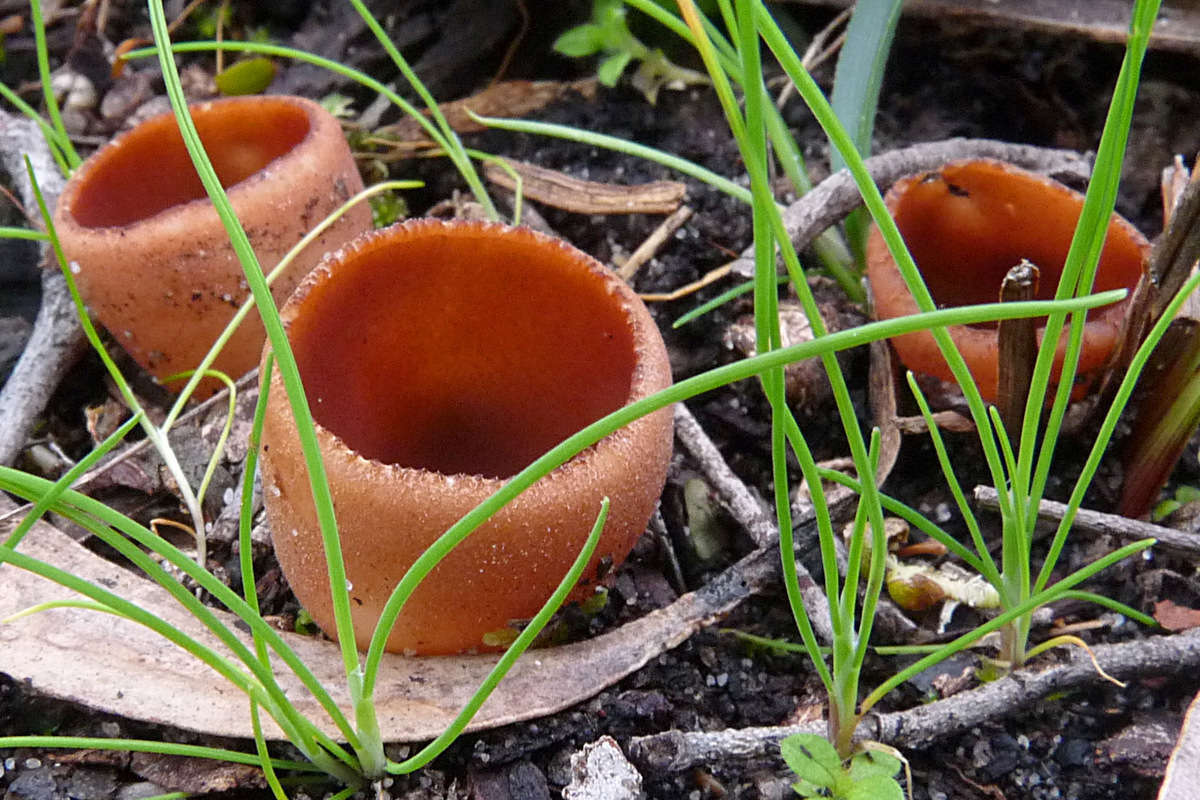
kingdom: Fungi
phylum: Ascomycota
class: Pezizomycetes
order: Pezizales
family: Pyronemataceae
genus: Nothojafnea
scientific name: Nothojafnea cryptotricha
